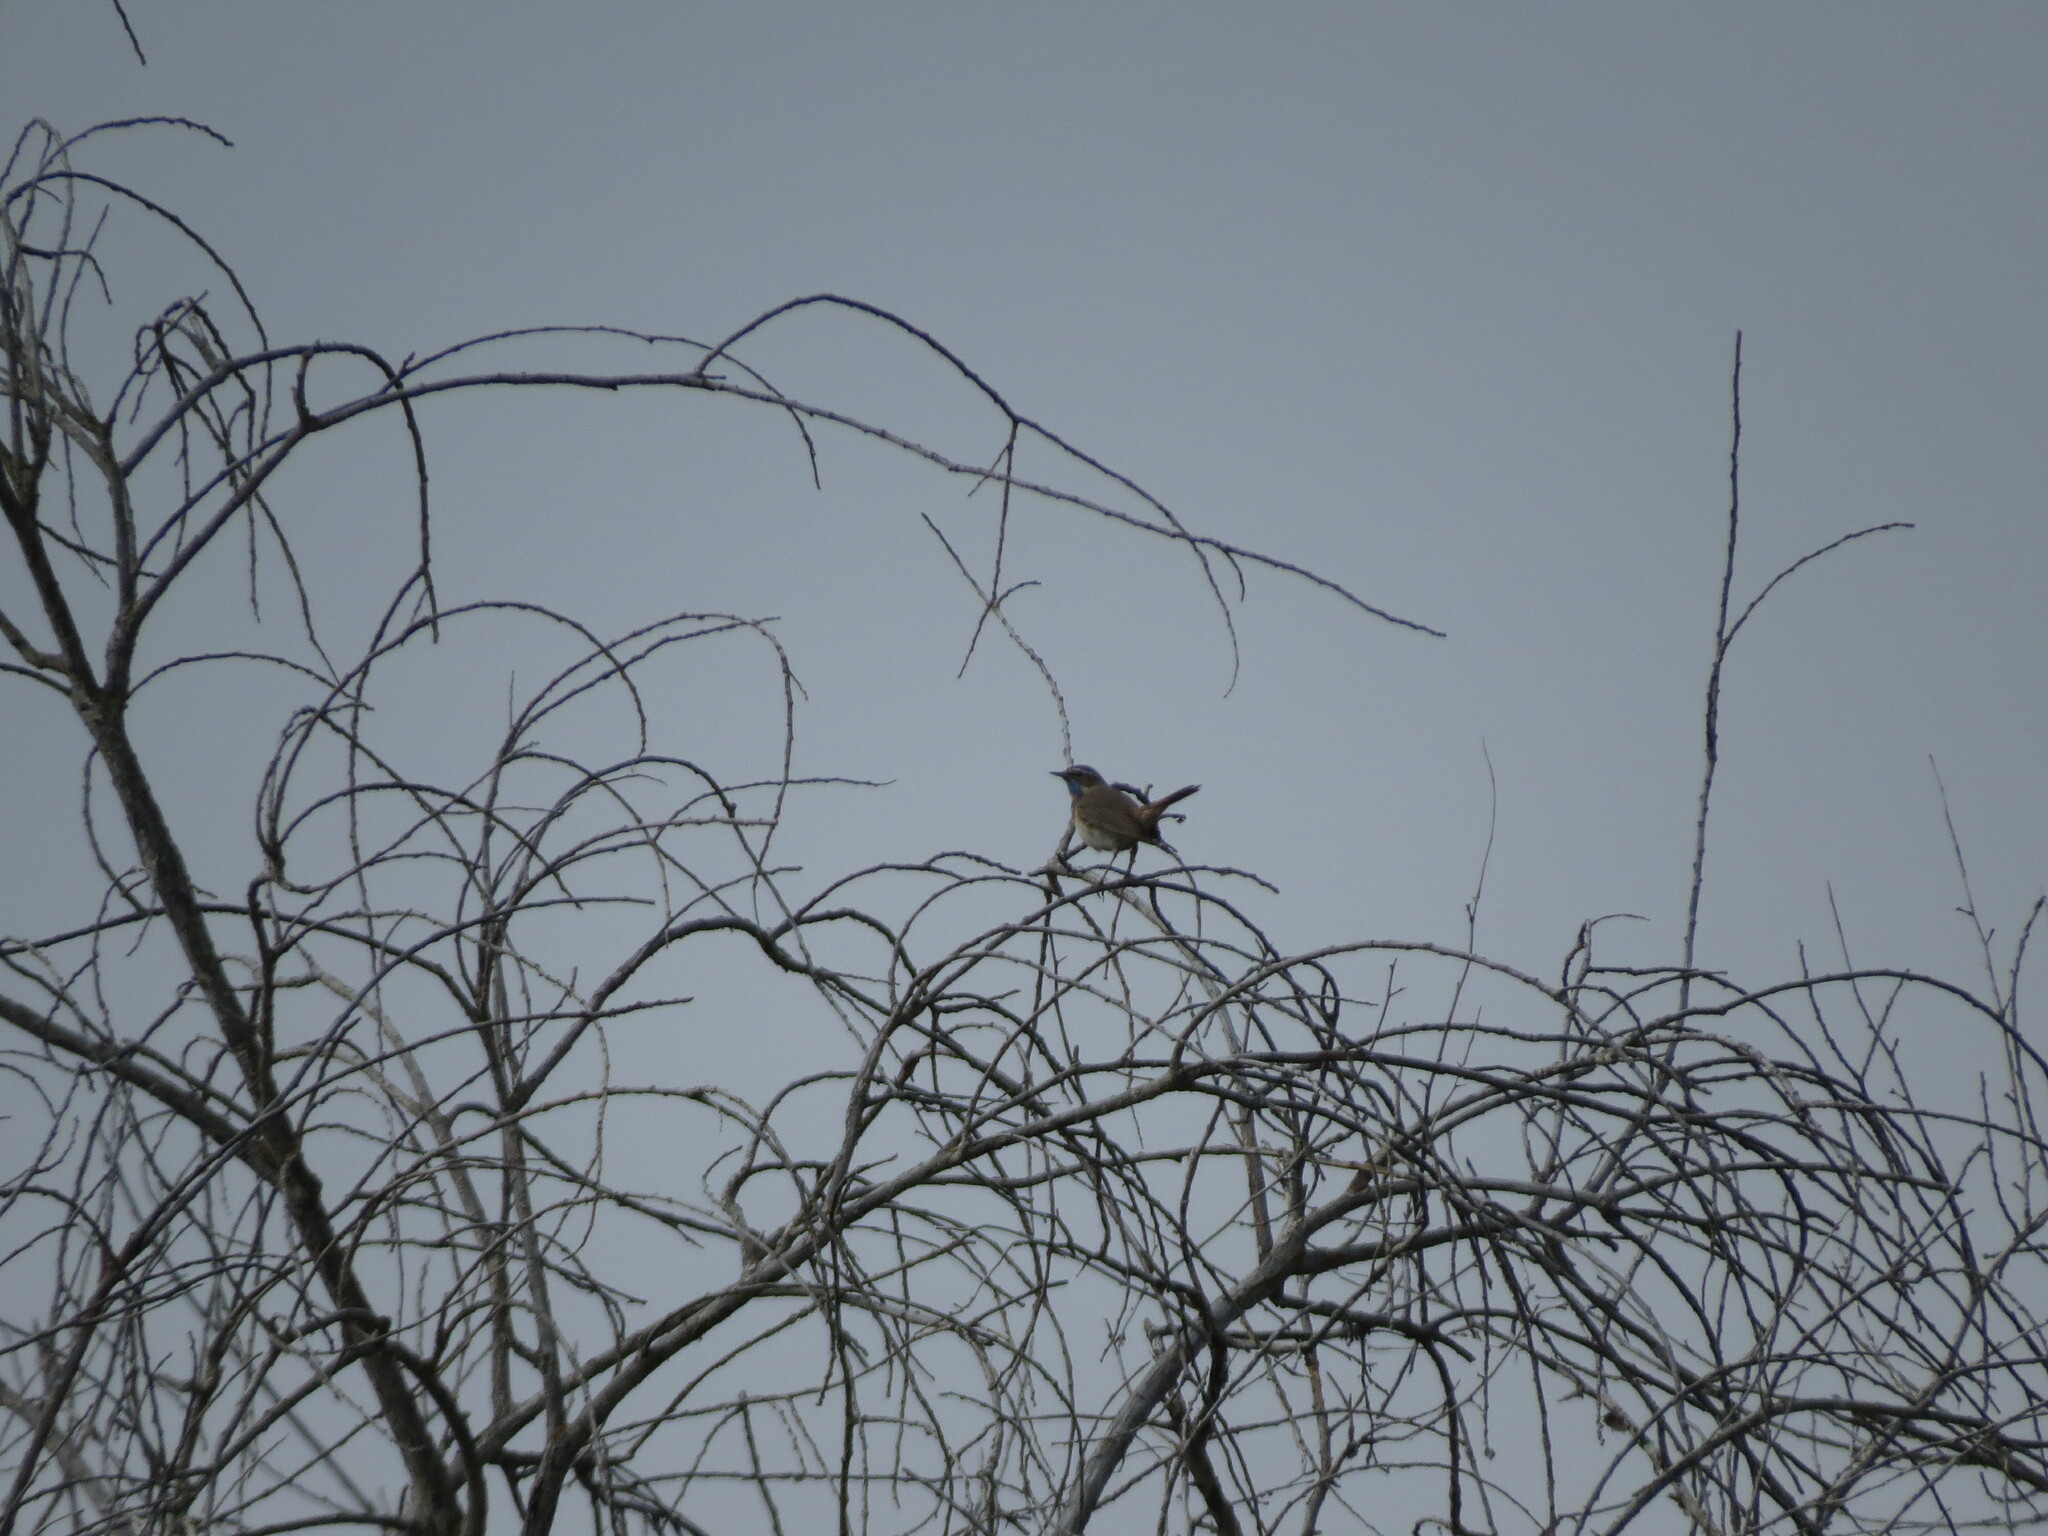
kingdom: Animalia
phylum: Chordata
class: Aves
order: Passeriformes
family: Muscicapidae
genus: Luscinia
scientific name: Luscinia svecica
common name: Bluethroat
